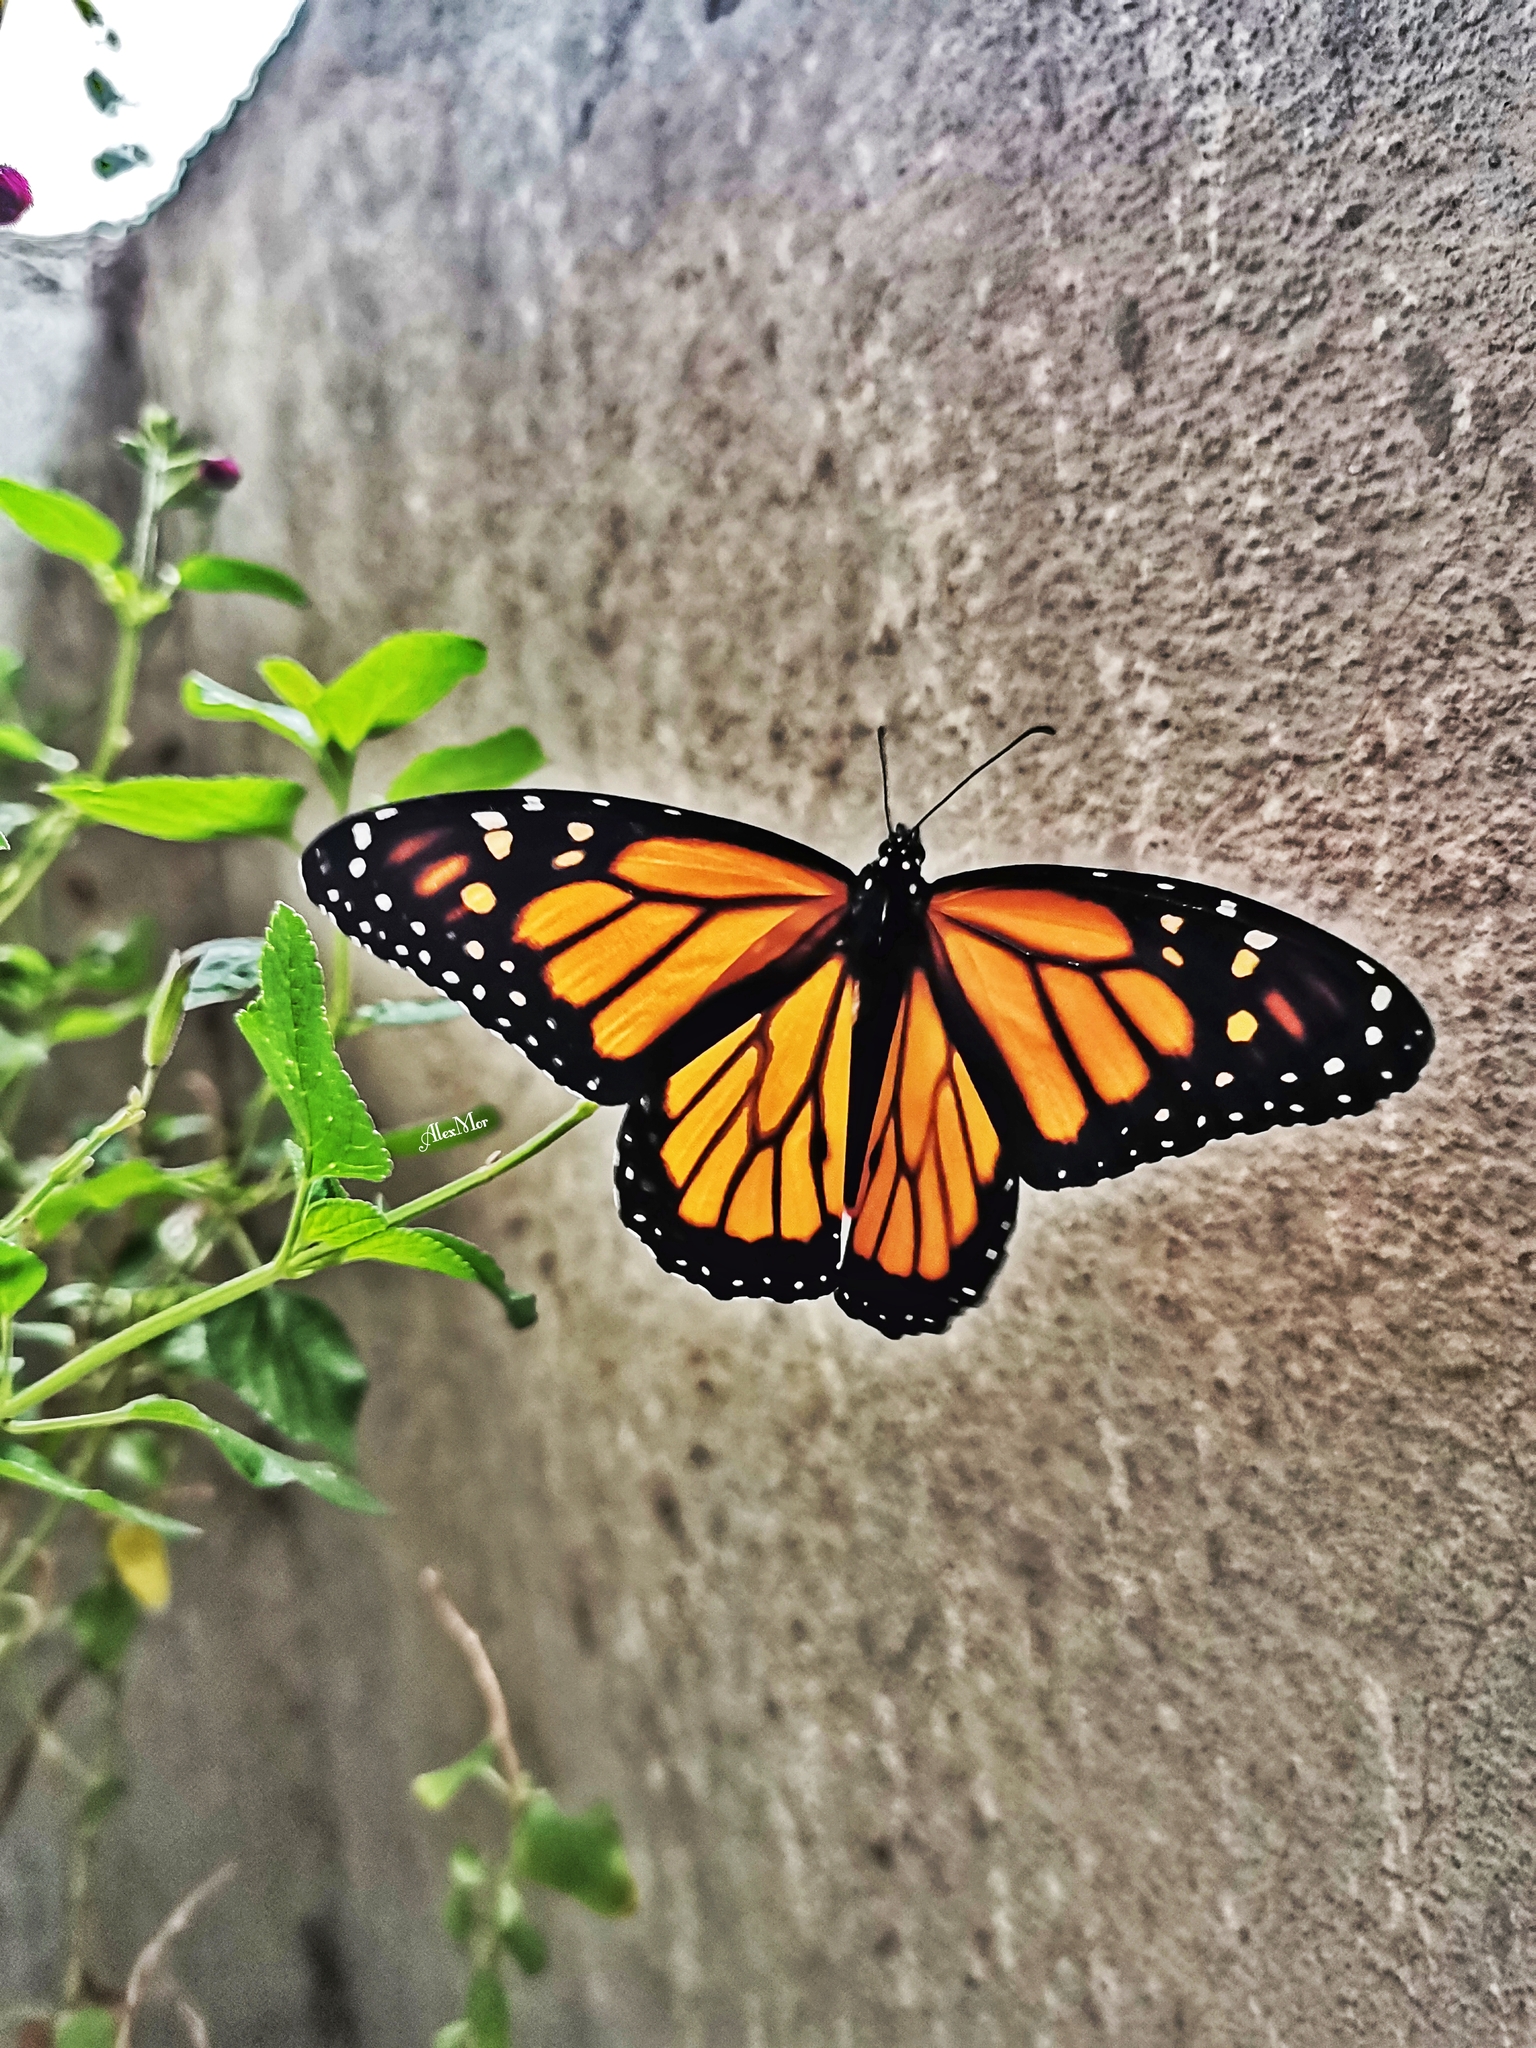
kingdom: Animalia
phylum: Arthropoda
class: Insecta
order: Lepidoptera
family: Nymphalidae
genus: Danaus
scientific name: Danaus plexippus
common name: Monarch
